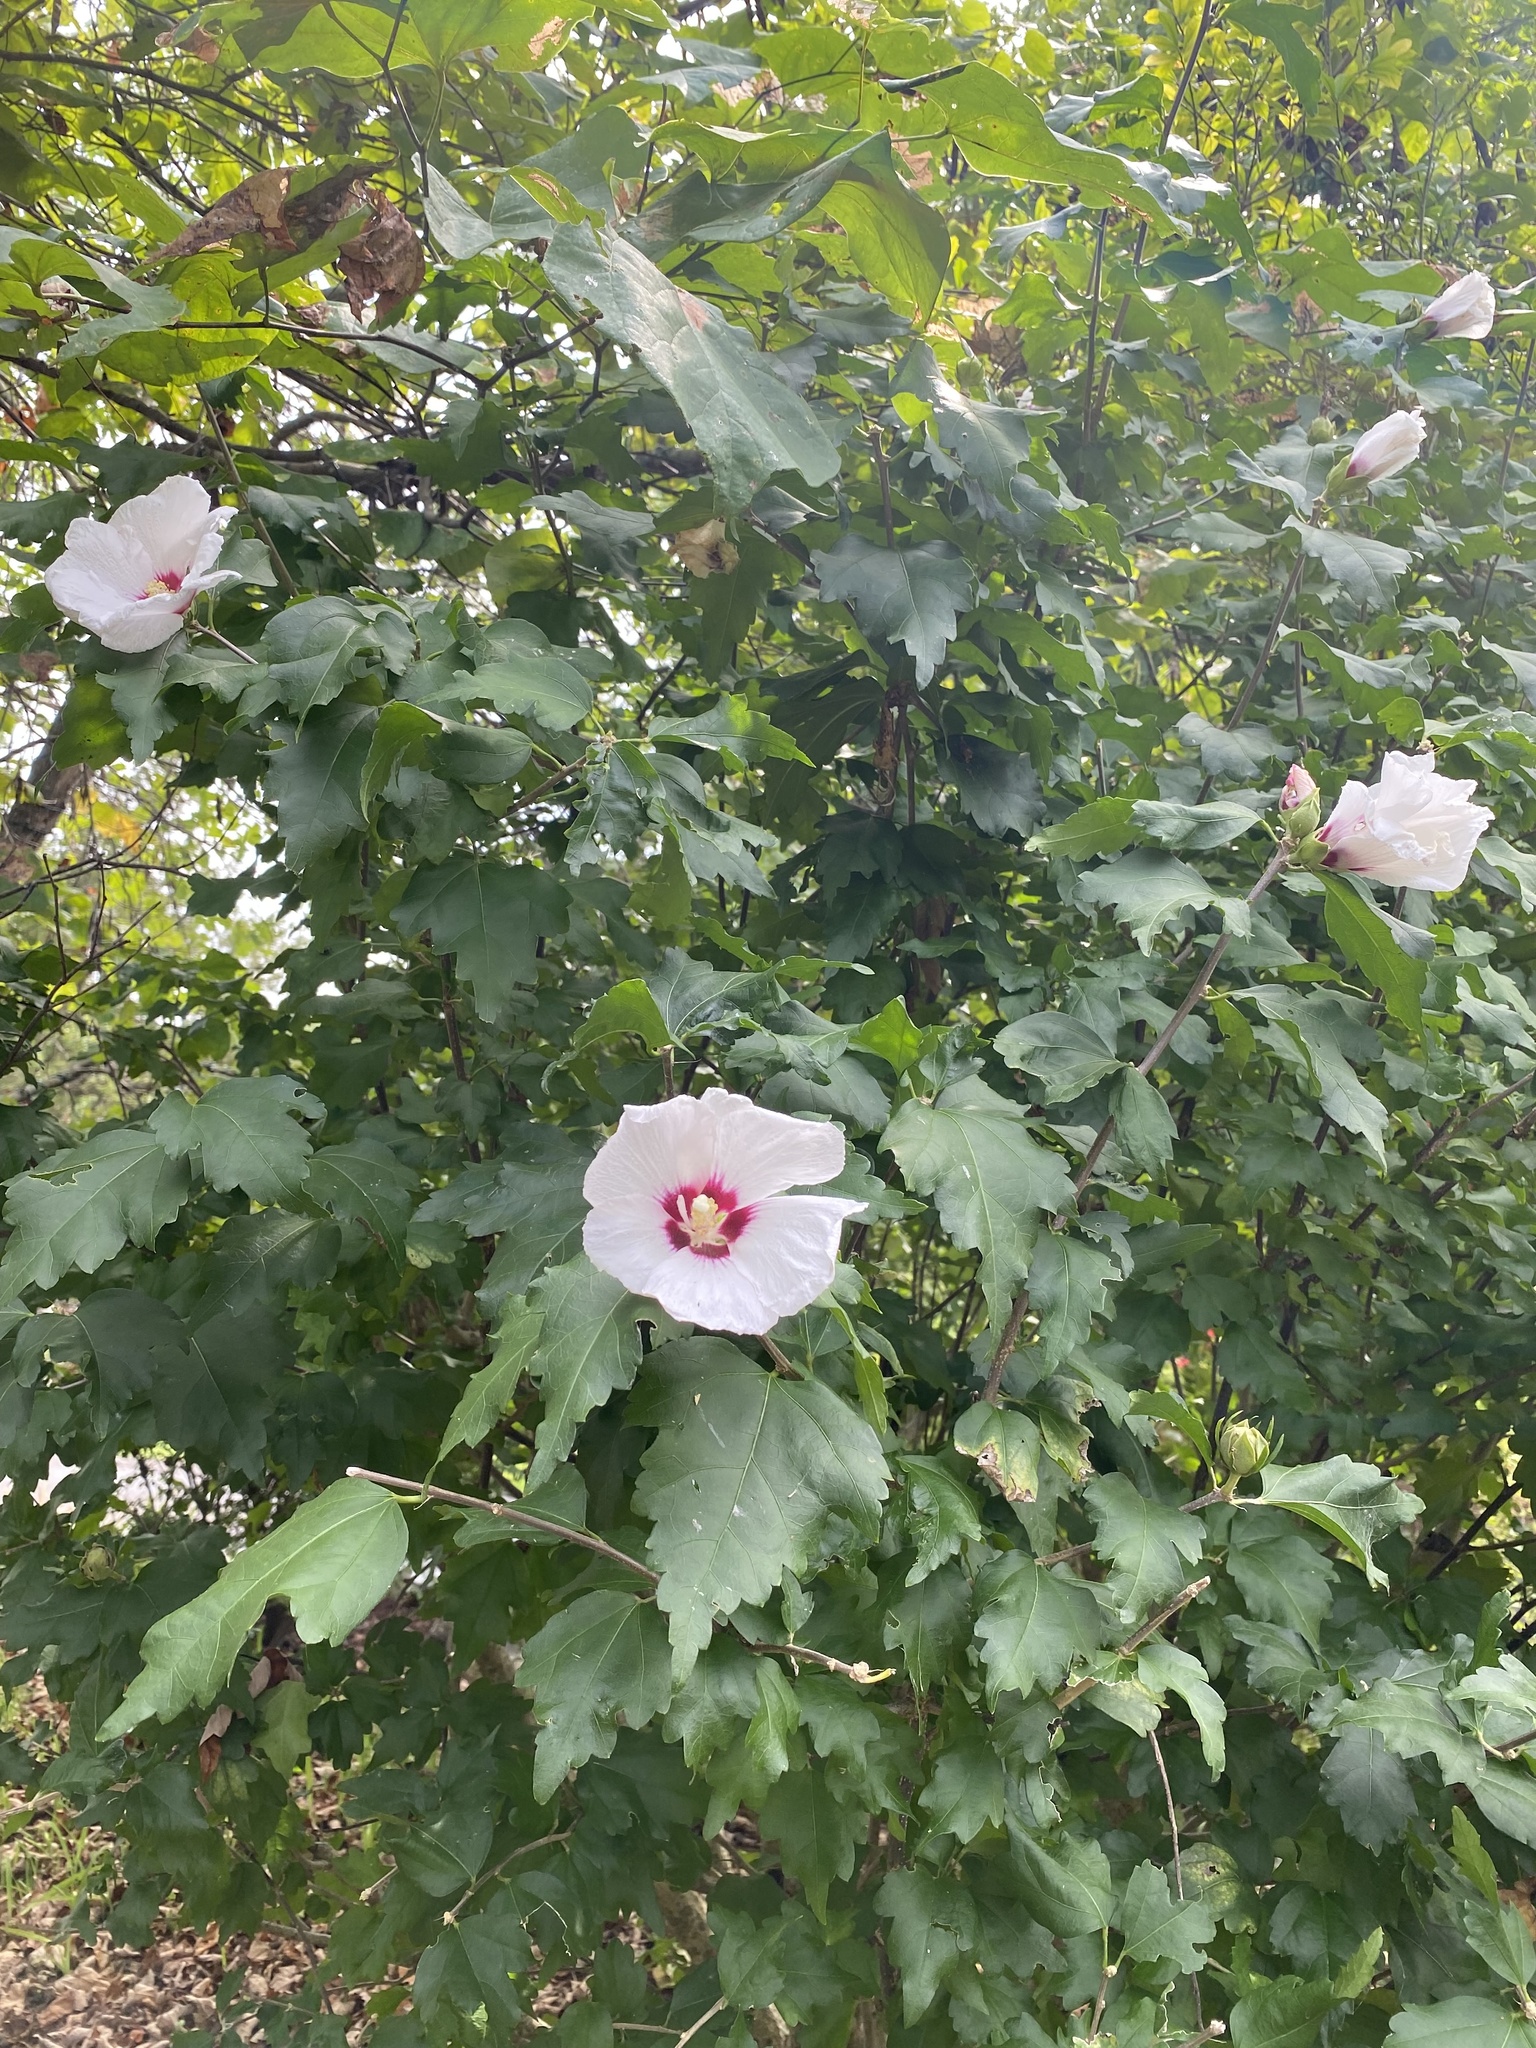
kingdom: Plantae
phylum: Tracheophyta
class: Magnoliopsida
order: Malvales
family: Malvaceae
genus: Hibiscus
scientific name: Hibiscus syriacus
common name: Syrian ketmia
